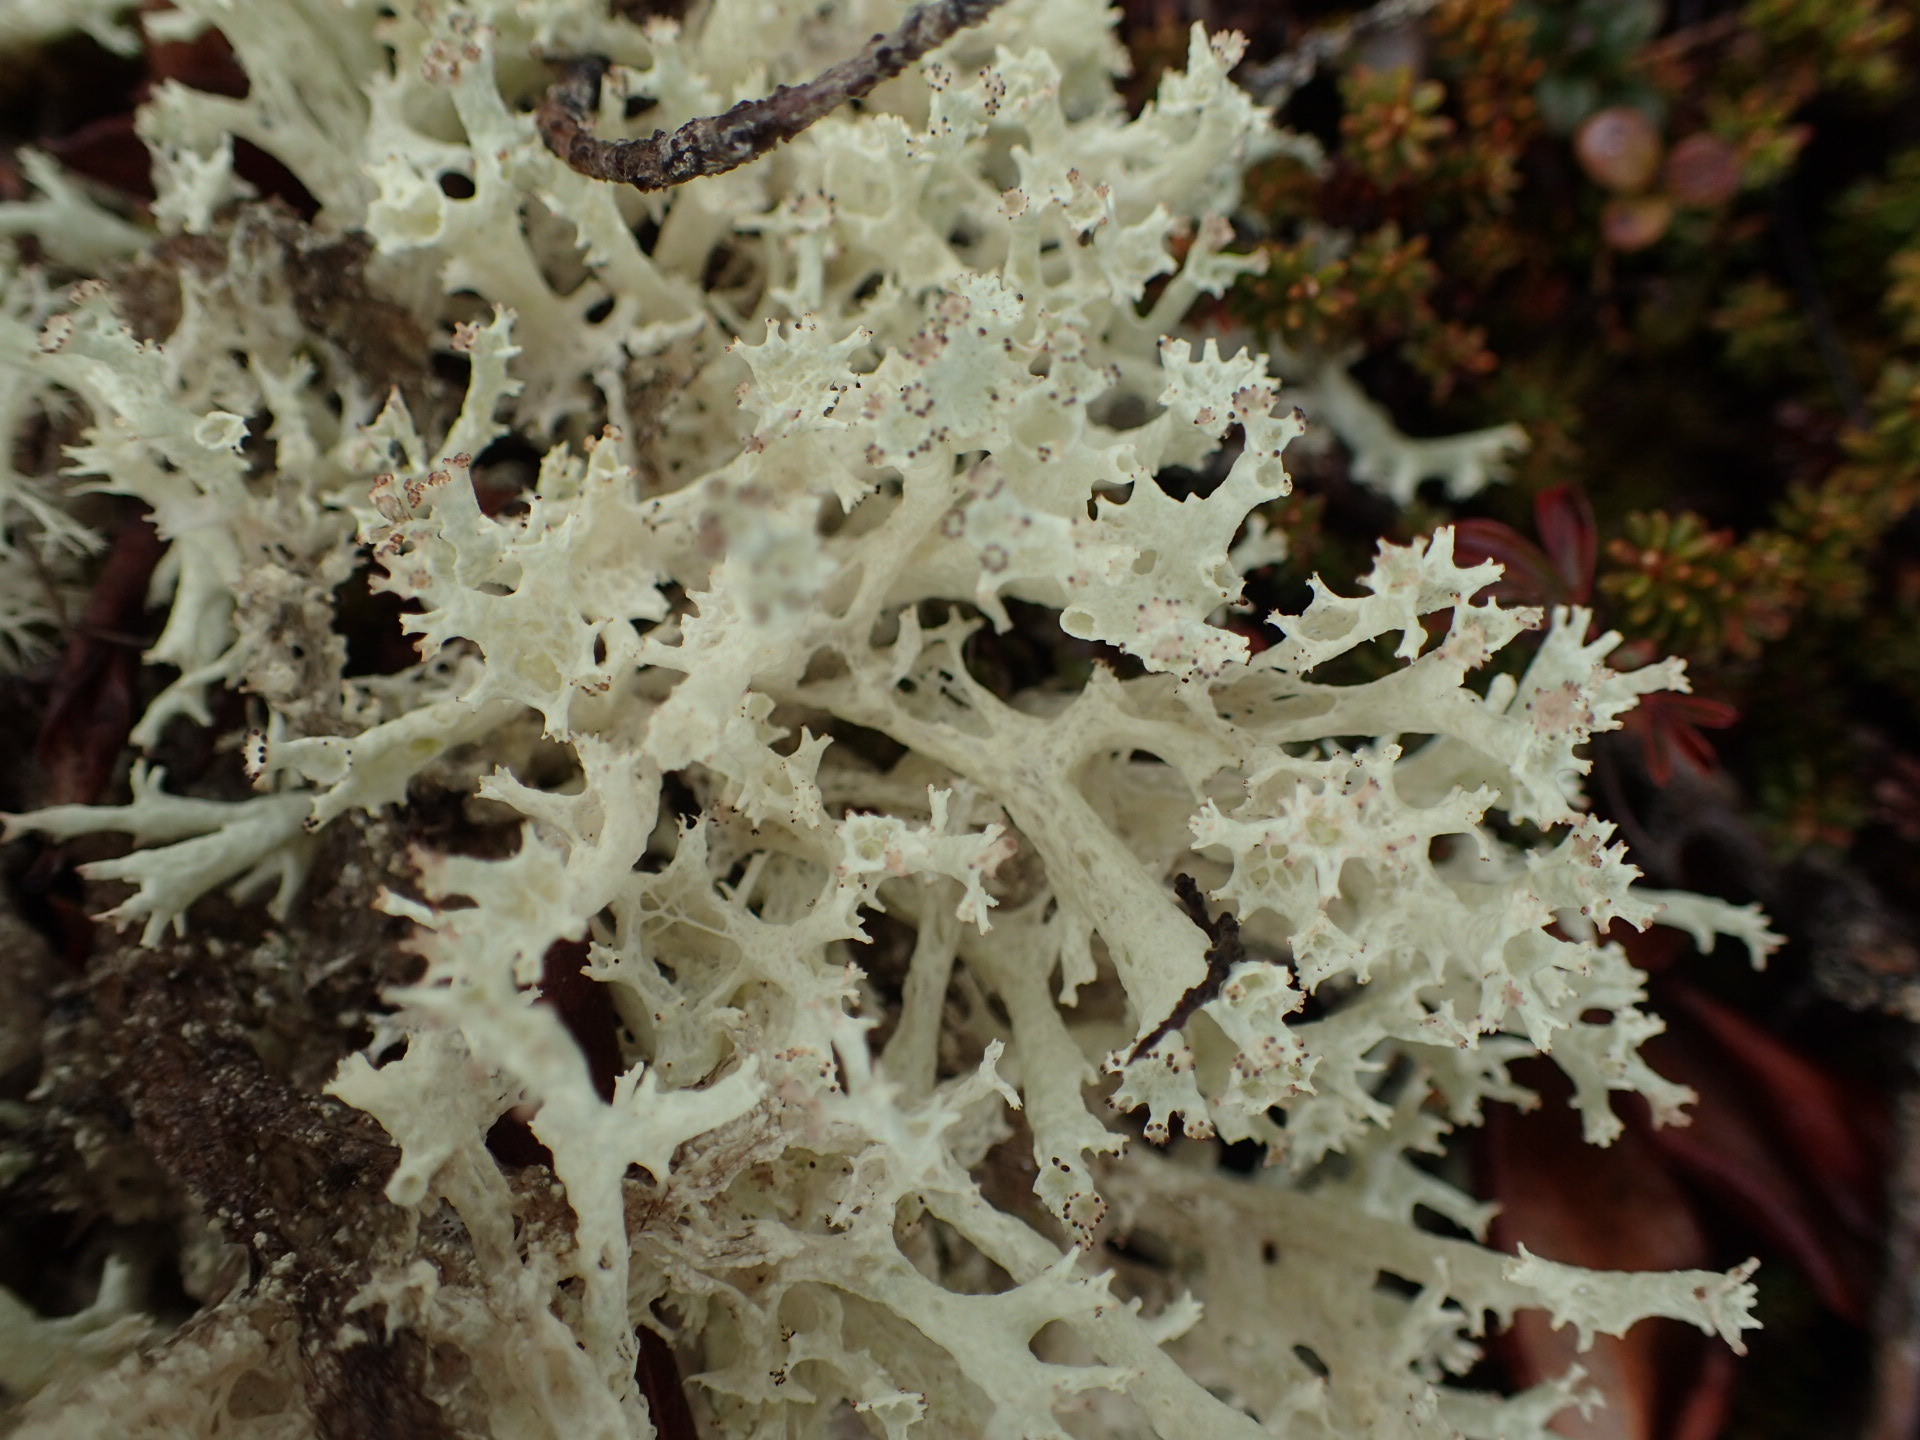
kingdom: Fungi
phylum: Ascomycota
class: Lecanoromycetes
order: Lecanorales
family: Cladoniaceae
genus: Cladonia
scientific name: Cladonia boryi
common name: Fishnet cladonia
